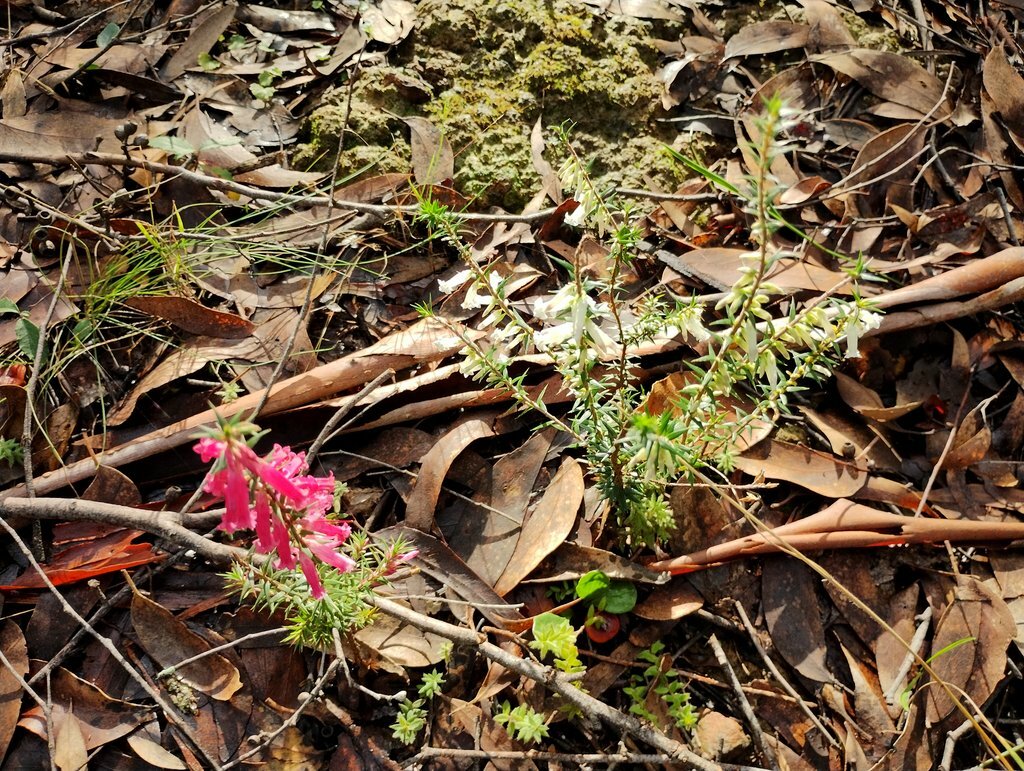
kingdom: Plantae
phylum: Tracheophyta
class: Magnoliopsida
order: Ericales
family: Ericaceae
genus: Epacris
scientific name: Epacris impressa
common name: Common-heath
